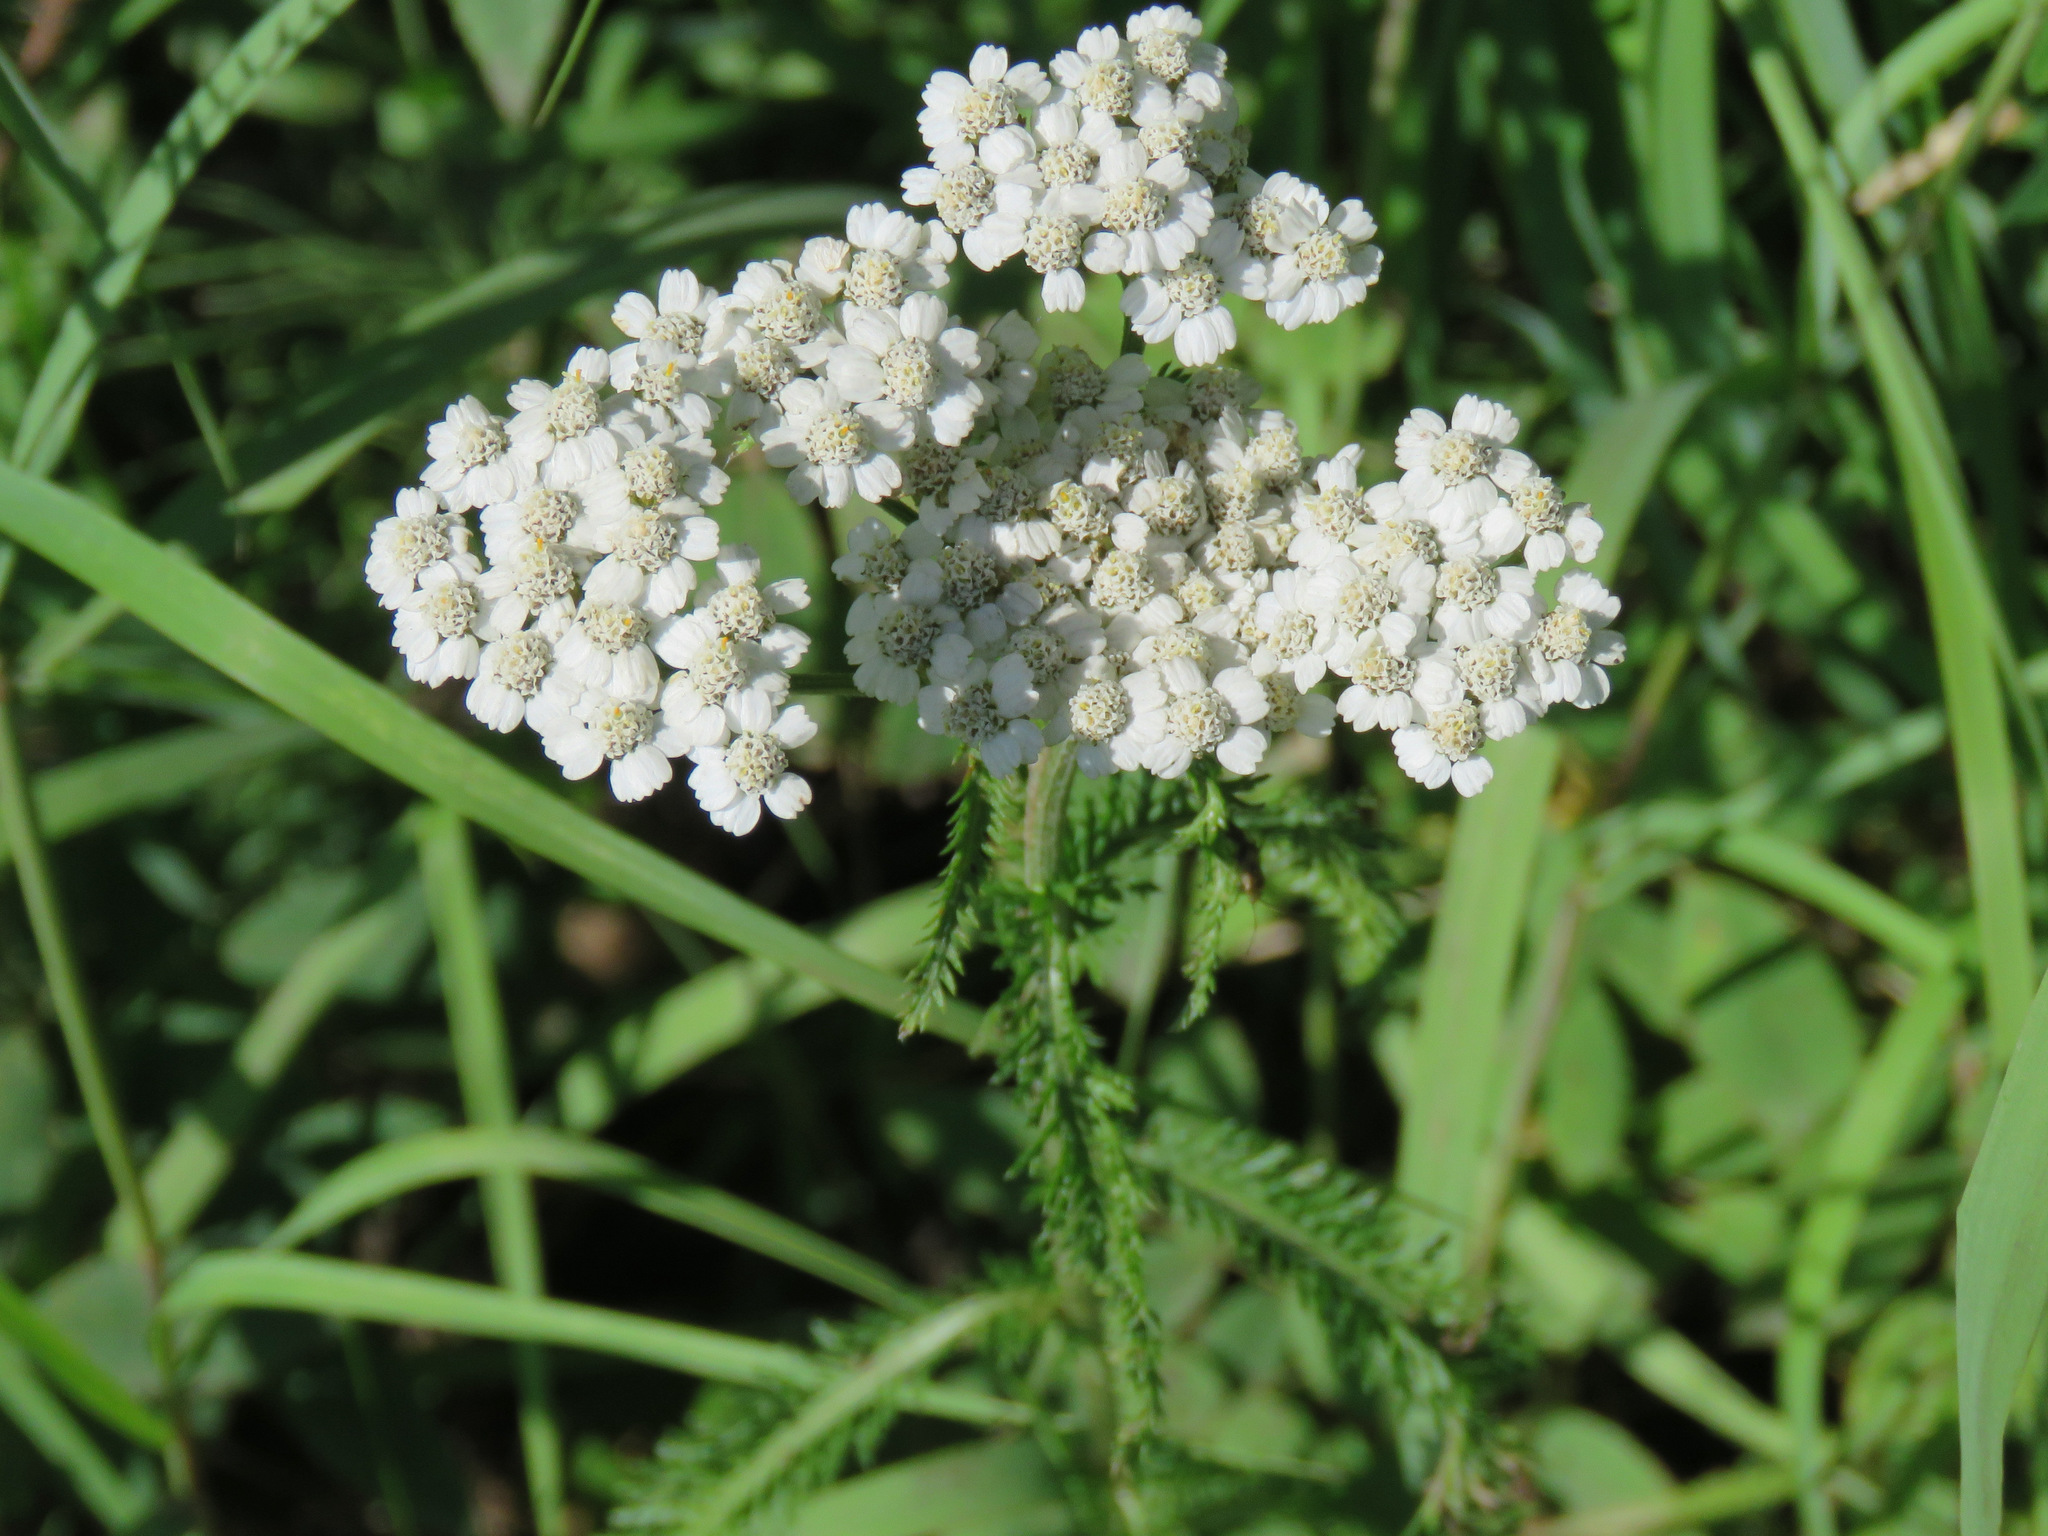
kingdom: Plantae
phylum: Tracheophyta
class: Magnoliopsida
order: Asterales
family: Asteraceae
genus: Achillea
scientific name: Achillea millefolium
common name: Yarrow
